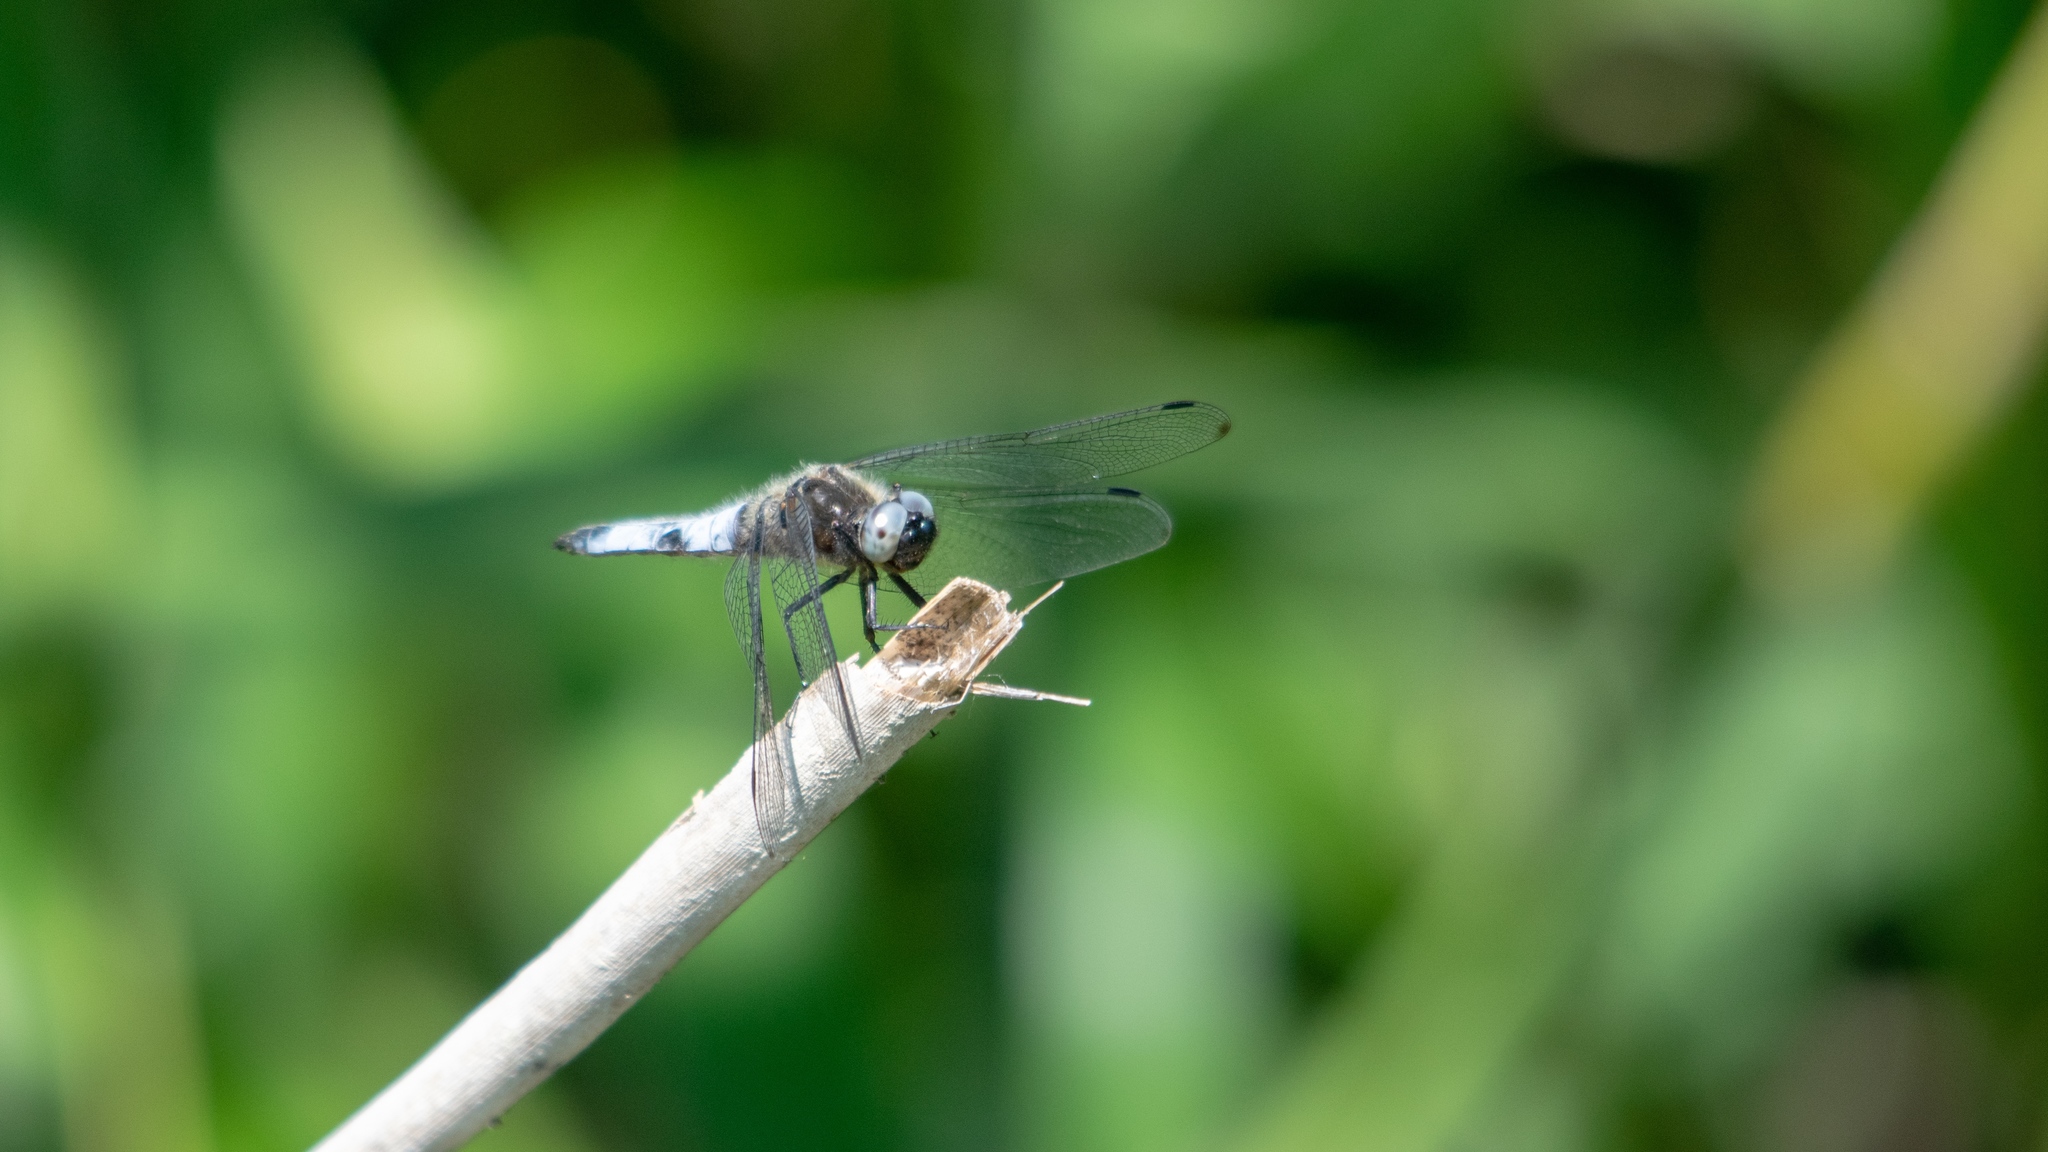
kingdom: Animalia
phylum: Arthropoda
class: Insecta
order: Odonata
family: Libellulidae
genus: Libellula
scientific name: Libellula fulva
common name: Blue chaser
